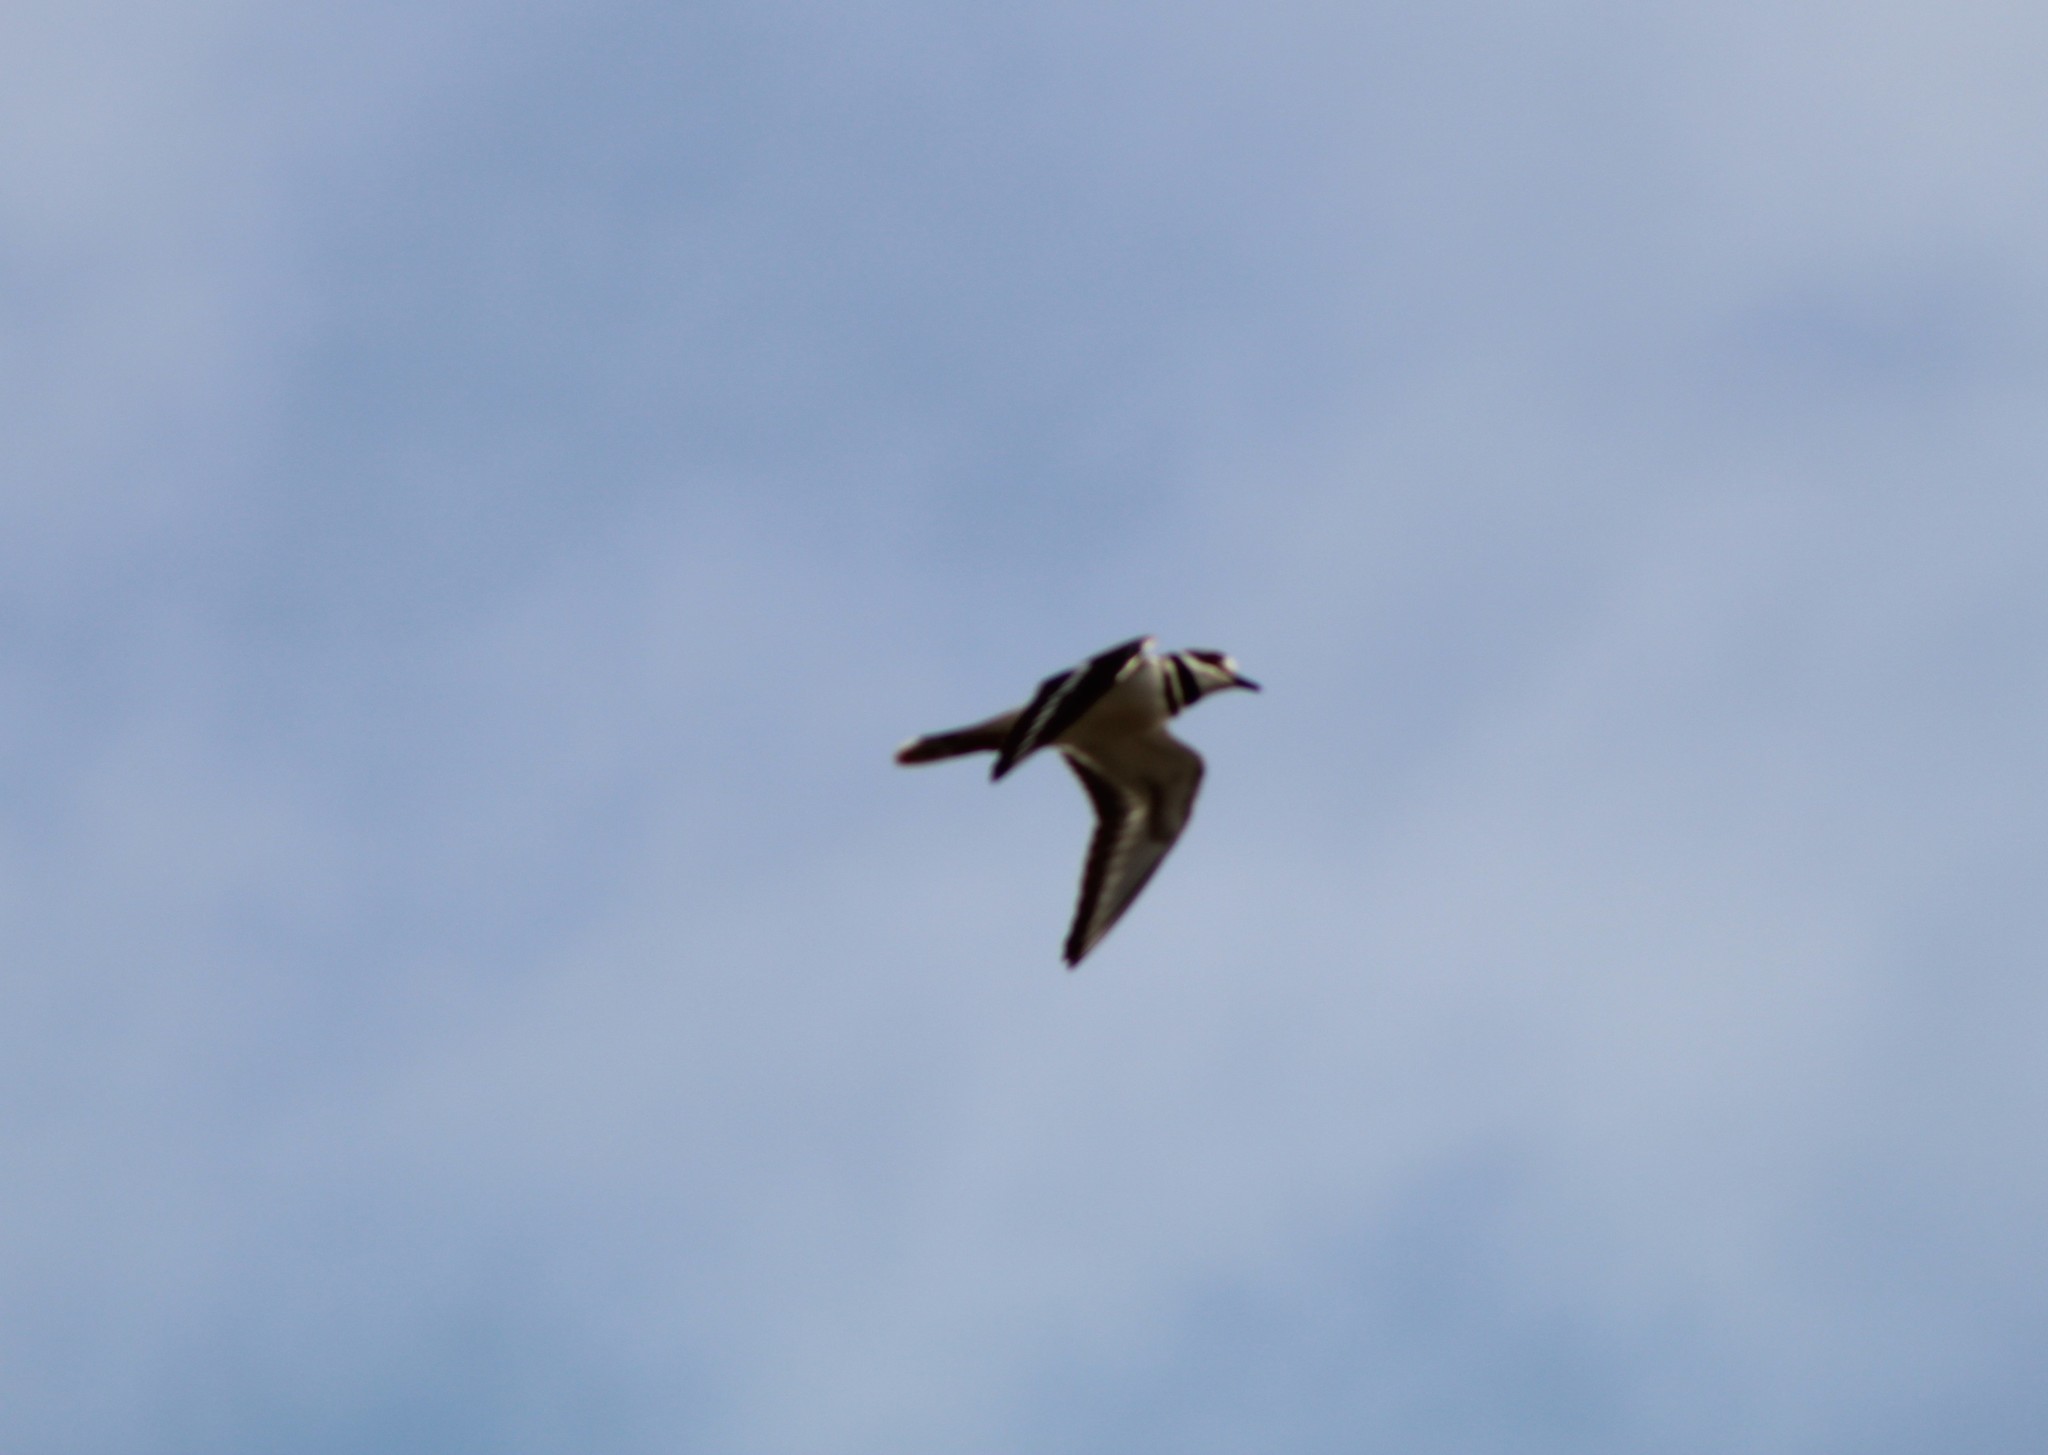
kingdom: Animalia
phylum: Chordata
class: Aves
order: Charadriiformes
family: Charadriidae
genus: Charadrius
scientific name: Charadrius vociferus
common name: Killdeer
